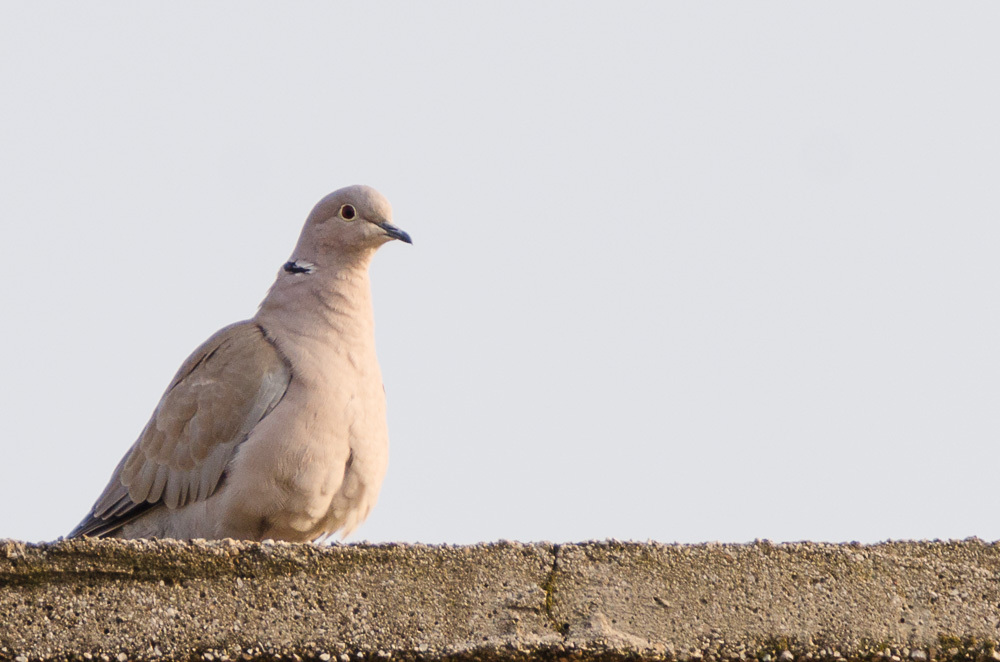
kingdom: Animalia
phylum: Chordata
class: Aves
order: Columbiformes
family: Columbidae
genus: Streptopelia
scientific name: Streptopelia decaocto
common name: Eurasian collared dove
